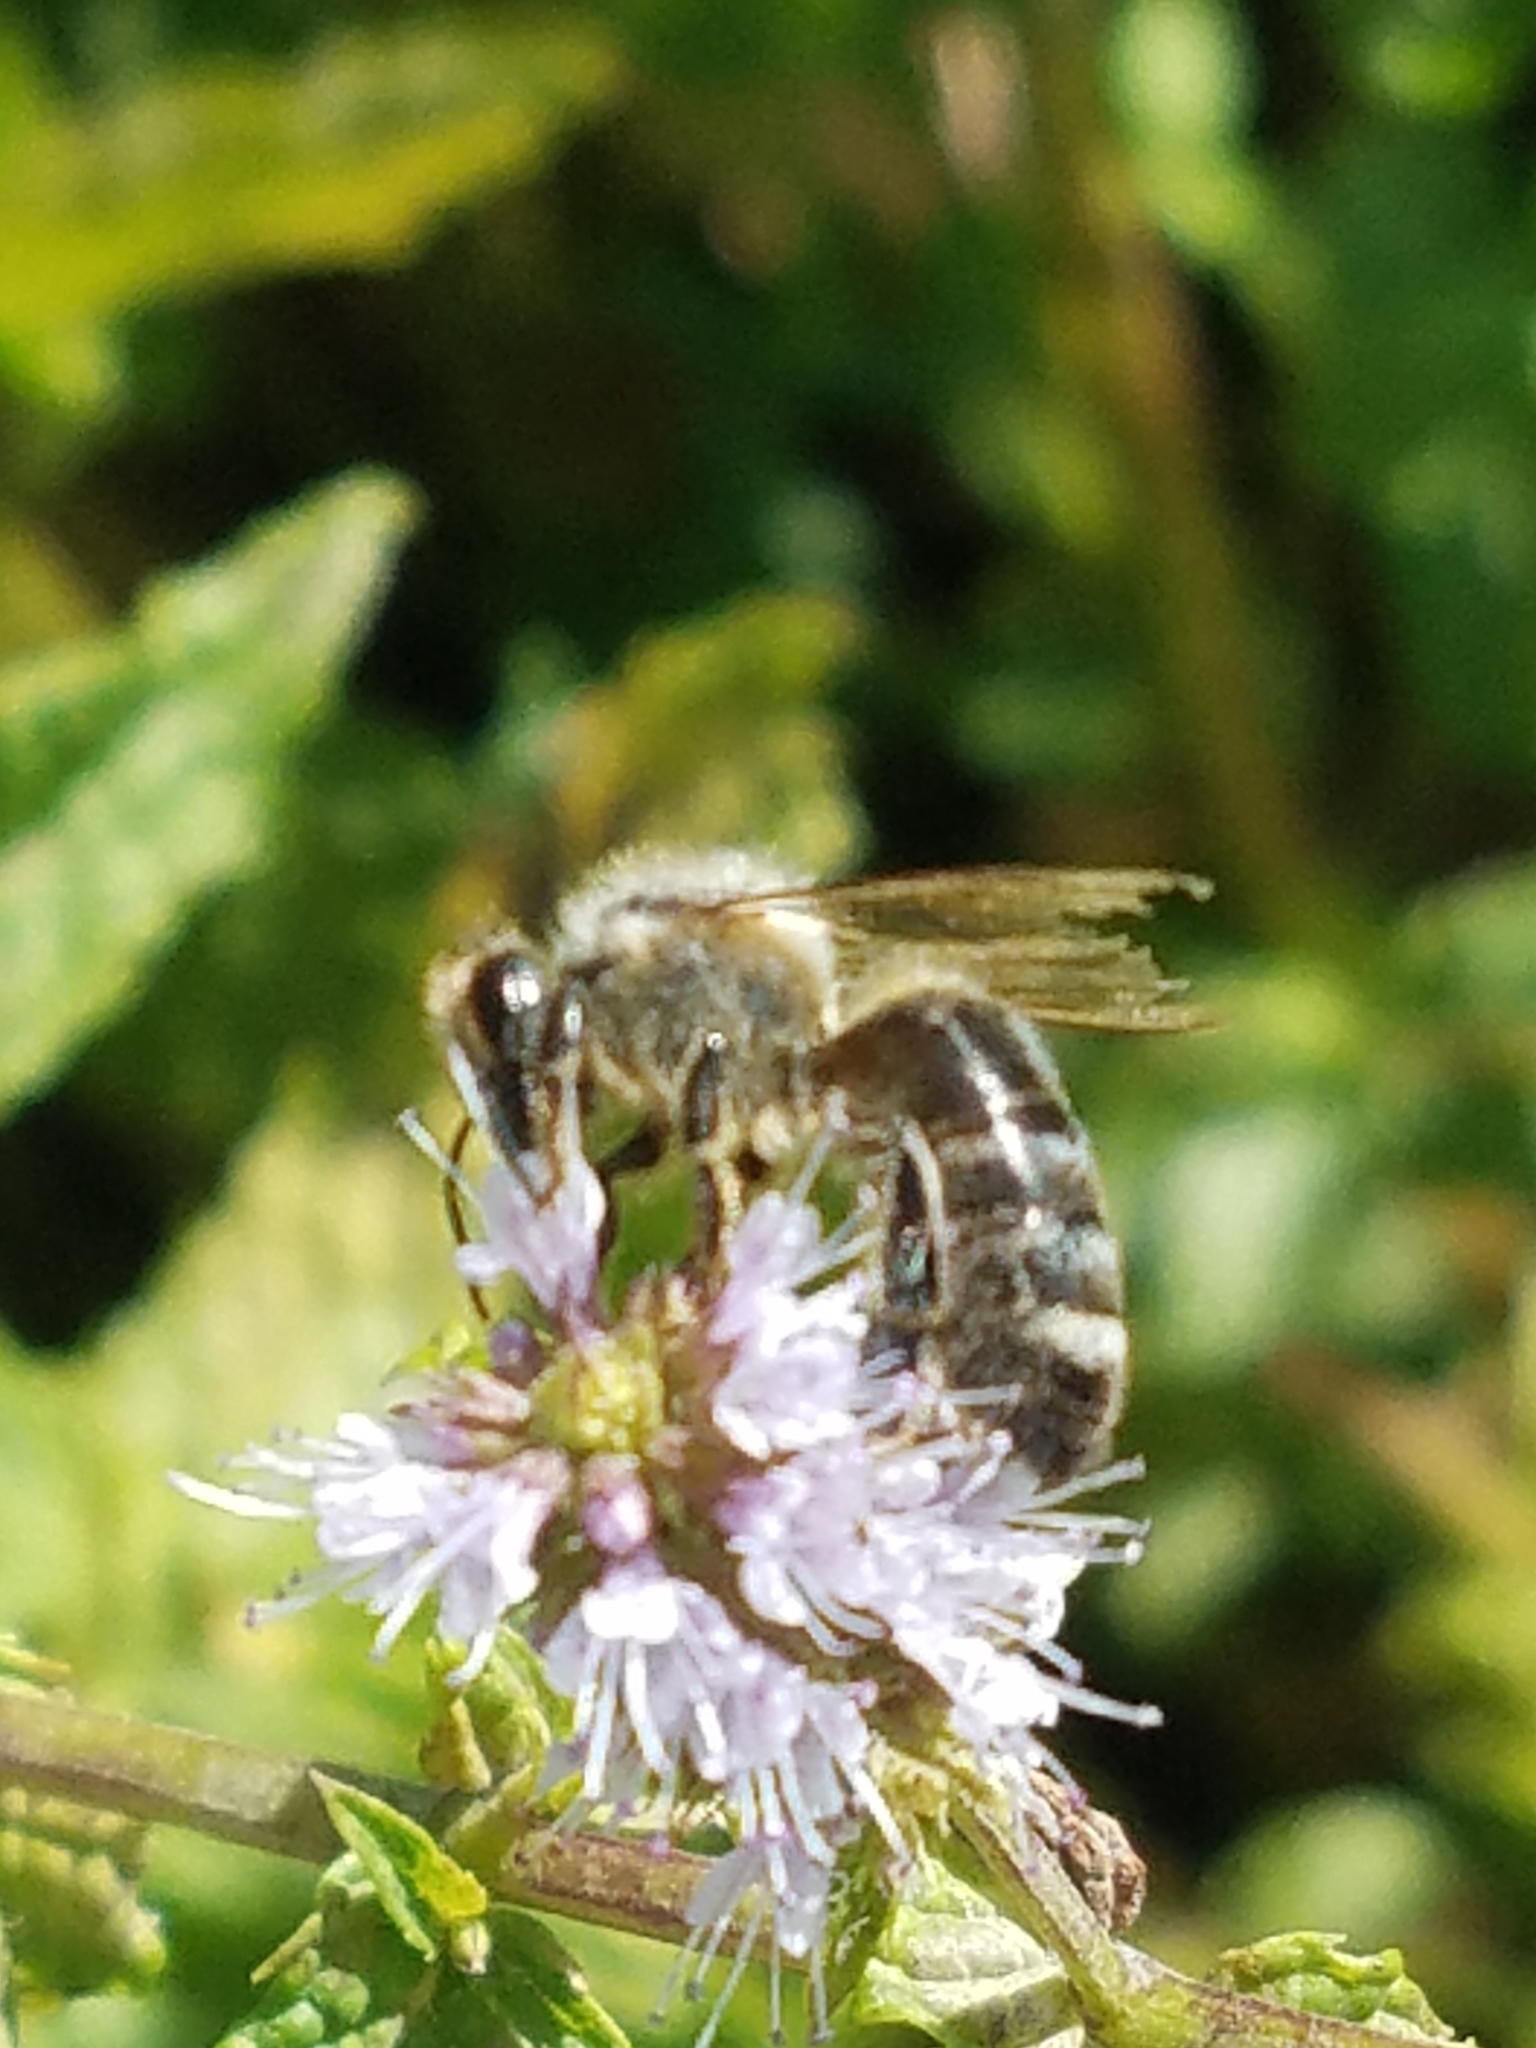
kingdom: Animalia
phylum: Arthropoda
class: Insecta
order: Hymenoptera
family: Apidae
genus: Apis
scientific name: Apis mellifera
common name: Honey bee
